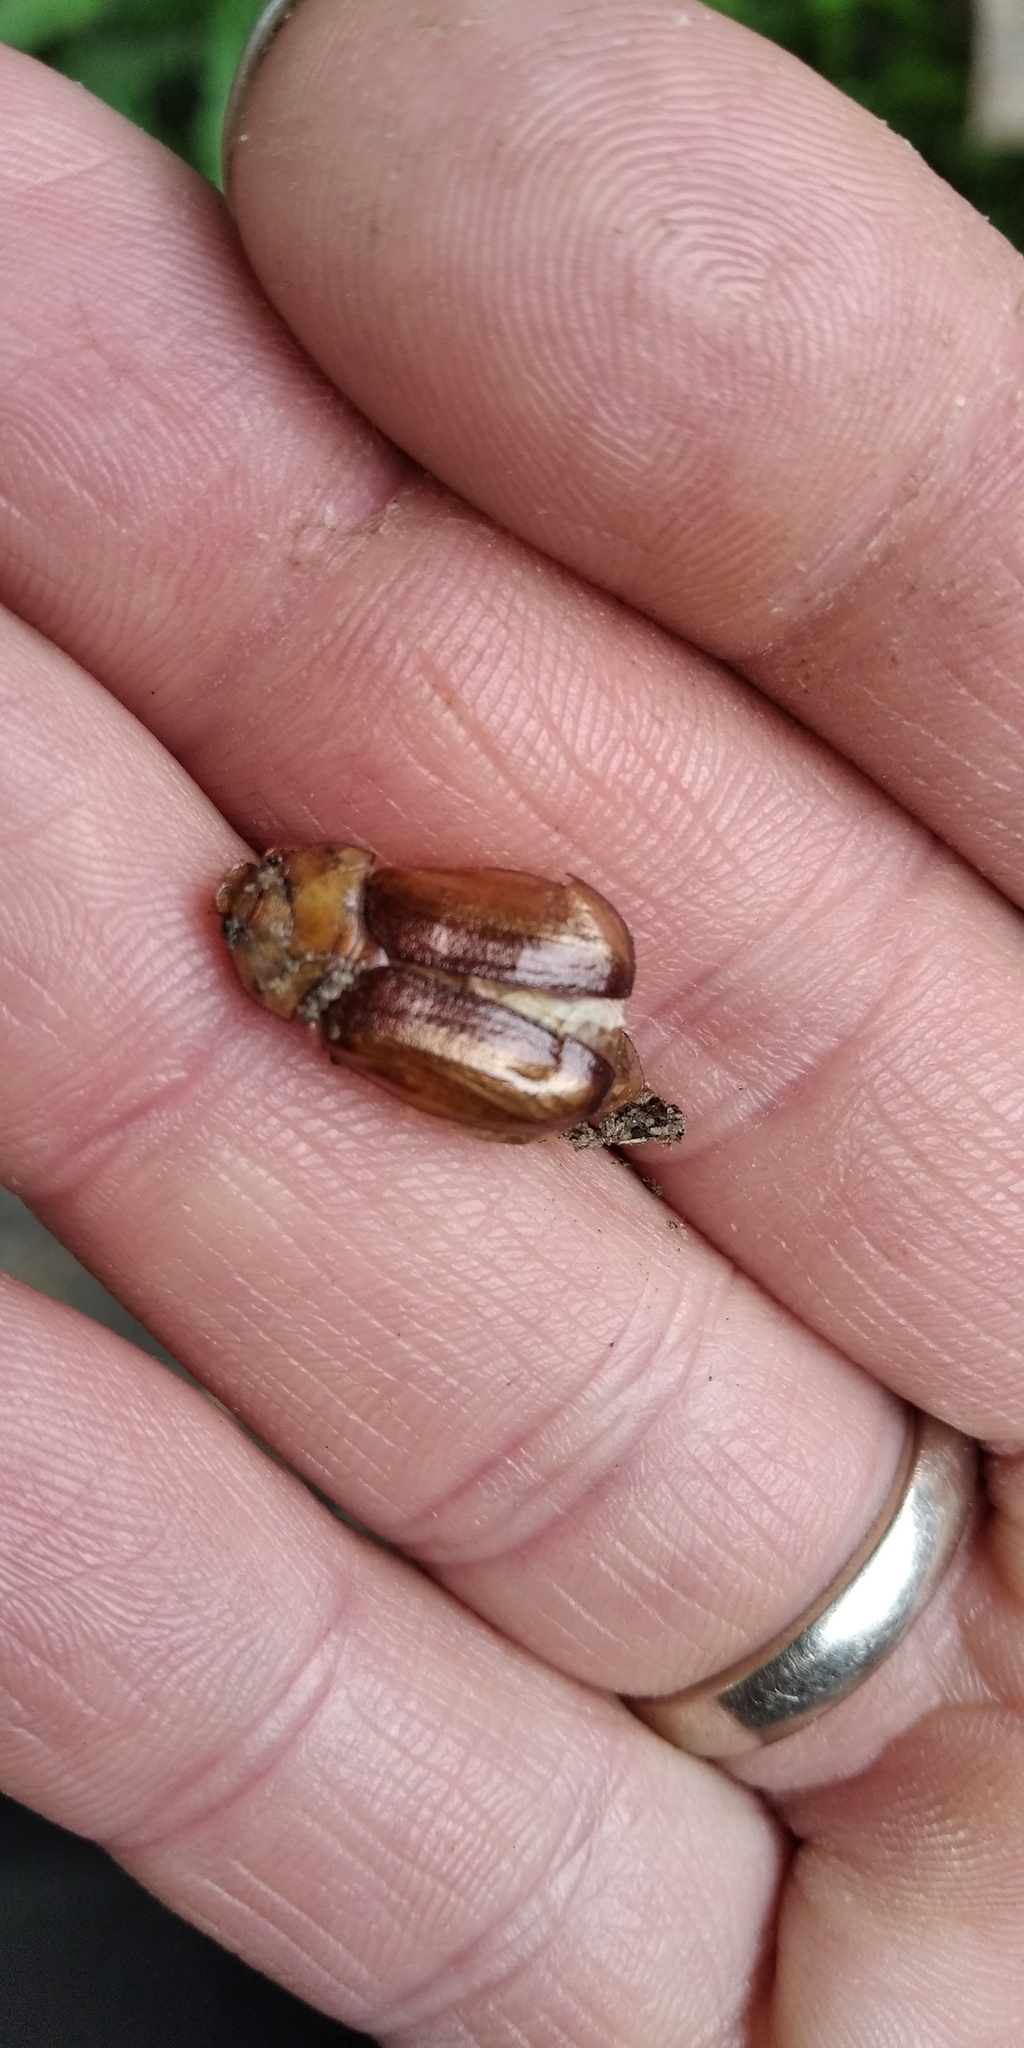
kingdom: Animalia
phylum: Arthropoda
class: Insecta
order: Coleoptera
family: Scarabaeidae
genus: Rhizotrogus
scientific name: Rhizotrogus aestivus
